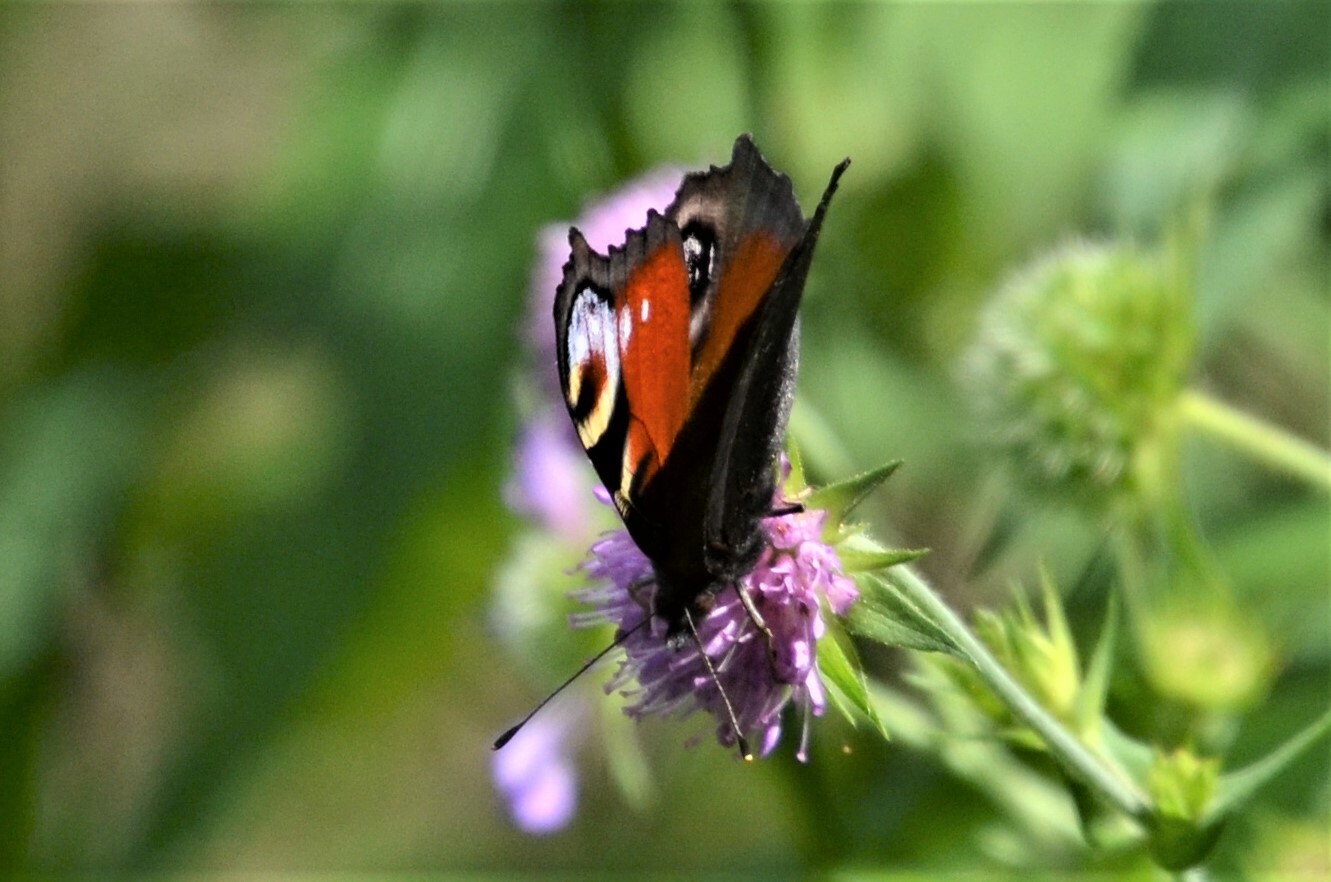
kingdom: Animalia
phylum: Arthropoda
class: Insecta
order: Lepidoptera
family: Nymphalidae
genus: Aglais
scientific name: Aglais io
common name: Peacock
